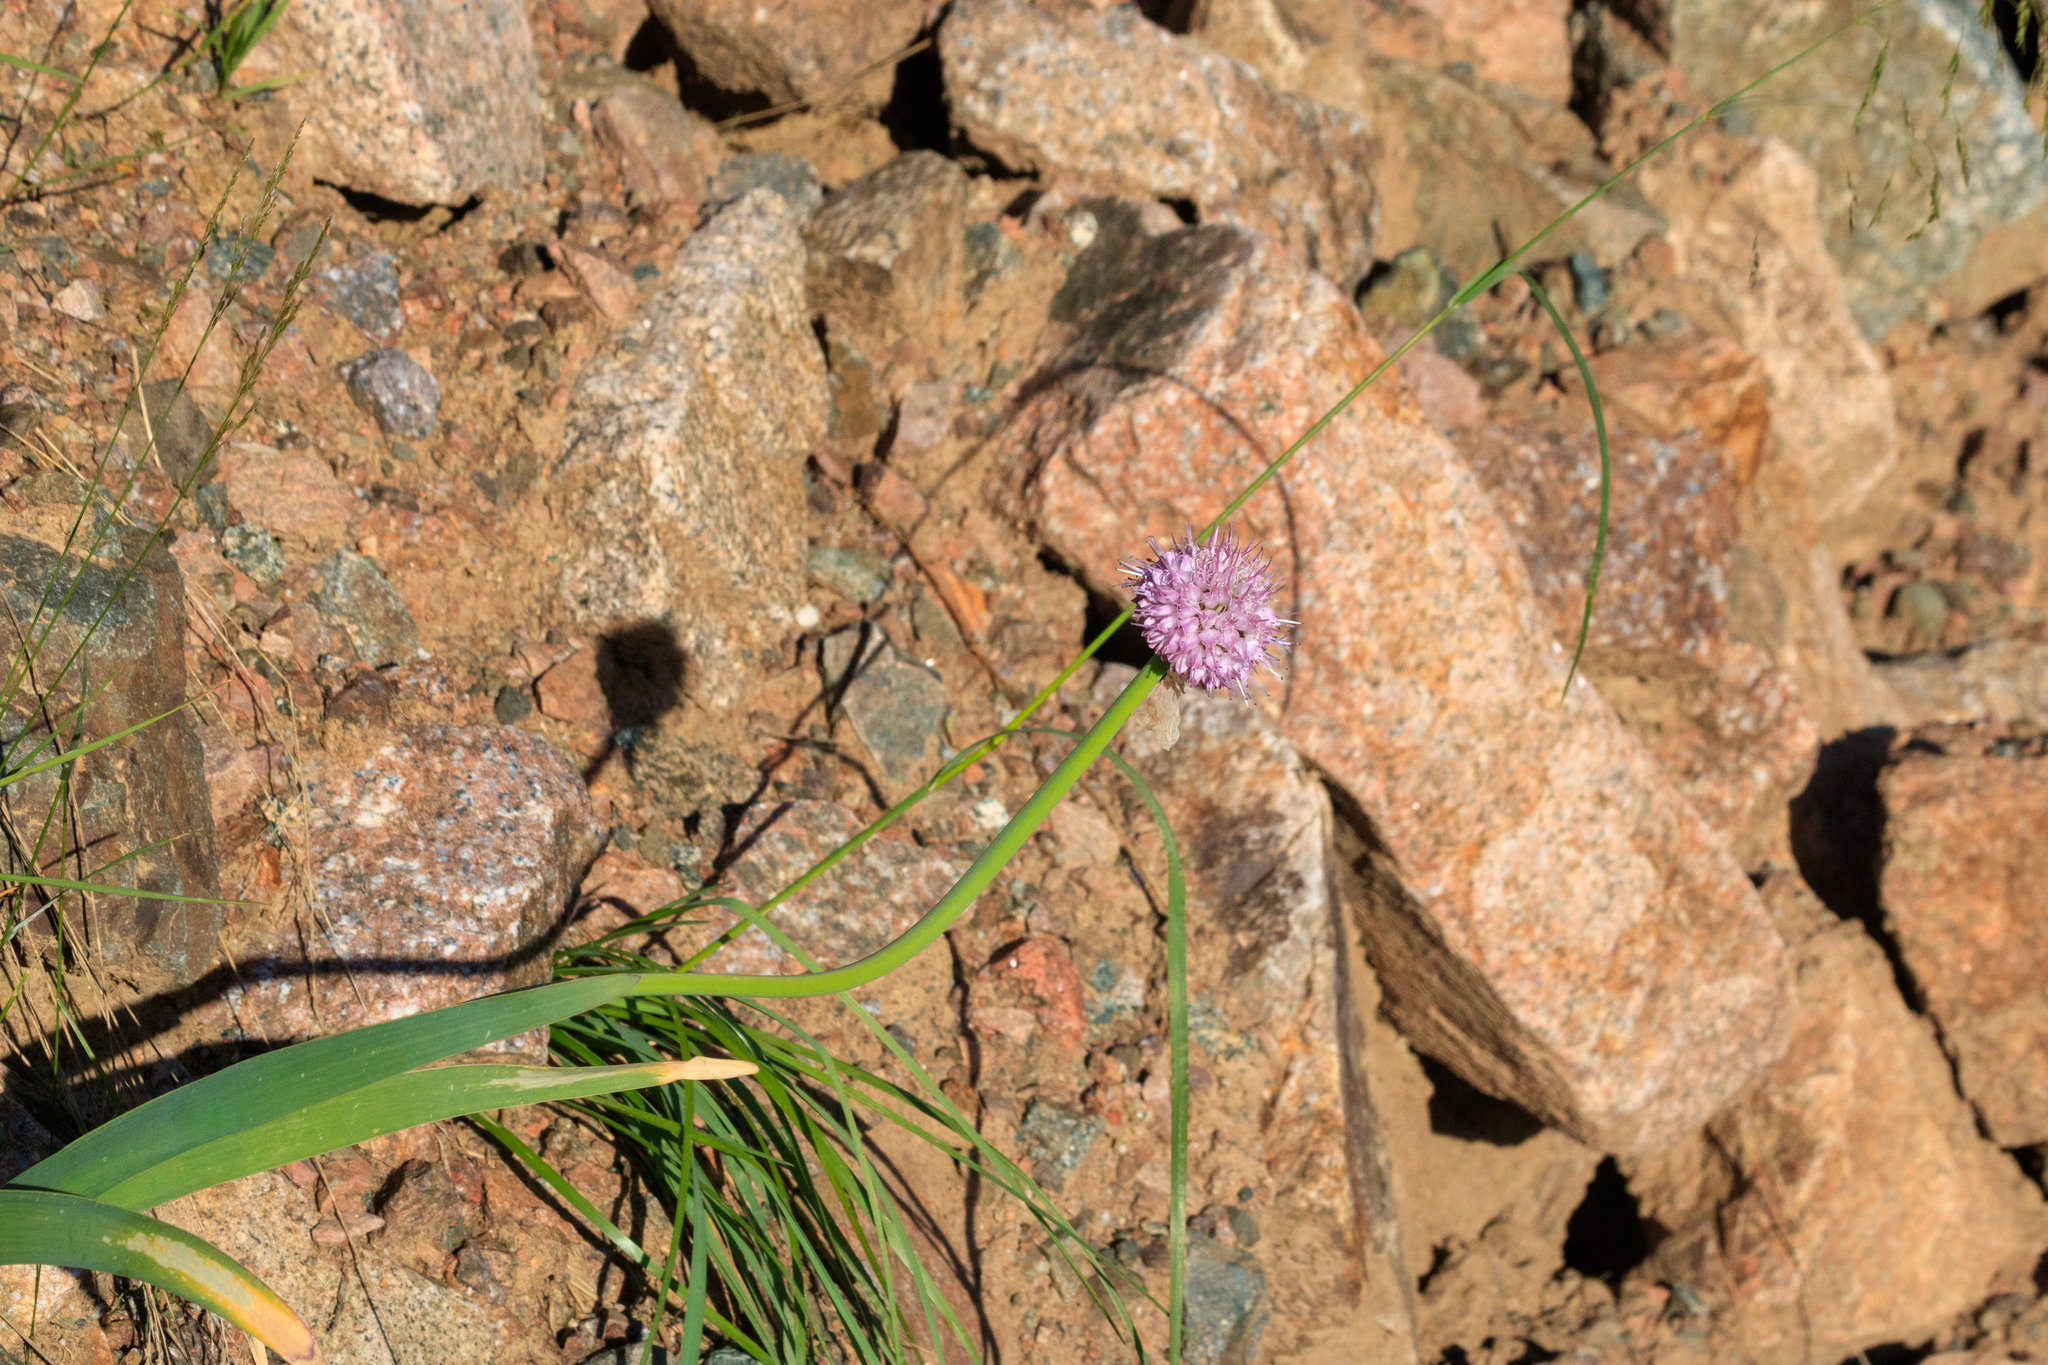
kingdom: Plantae
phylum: Tracheophyta
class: Liliopsida
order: Asparagales
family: Amaryllidaceae
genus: Allium
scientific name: Allium carolinianum
